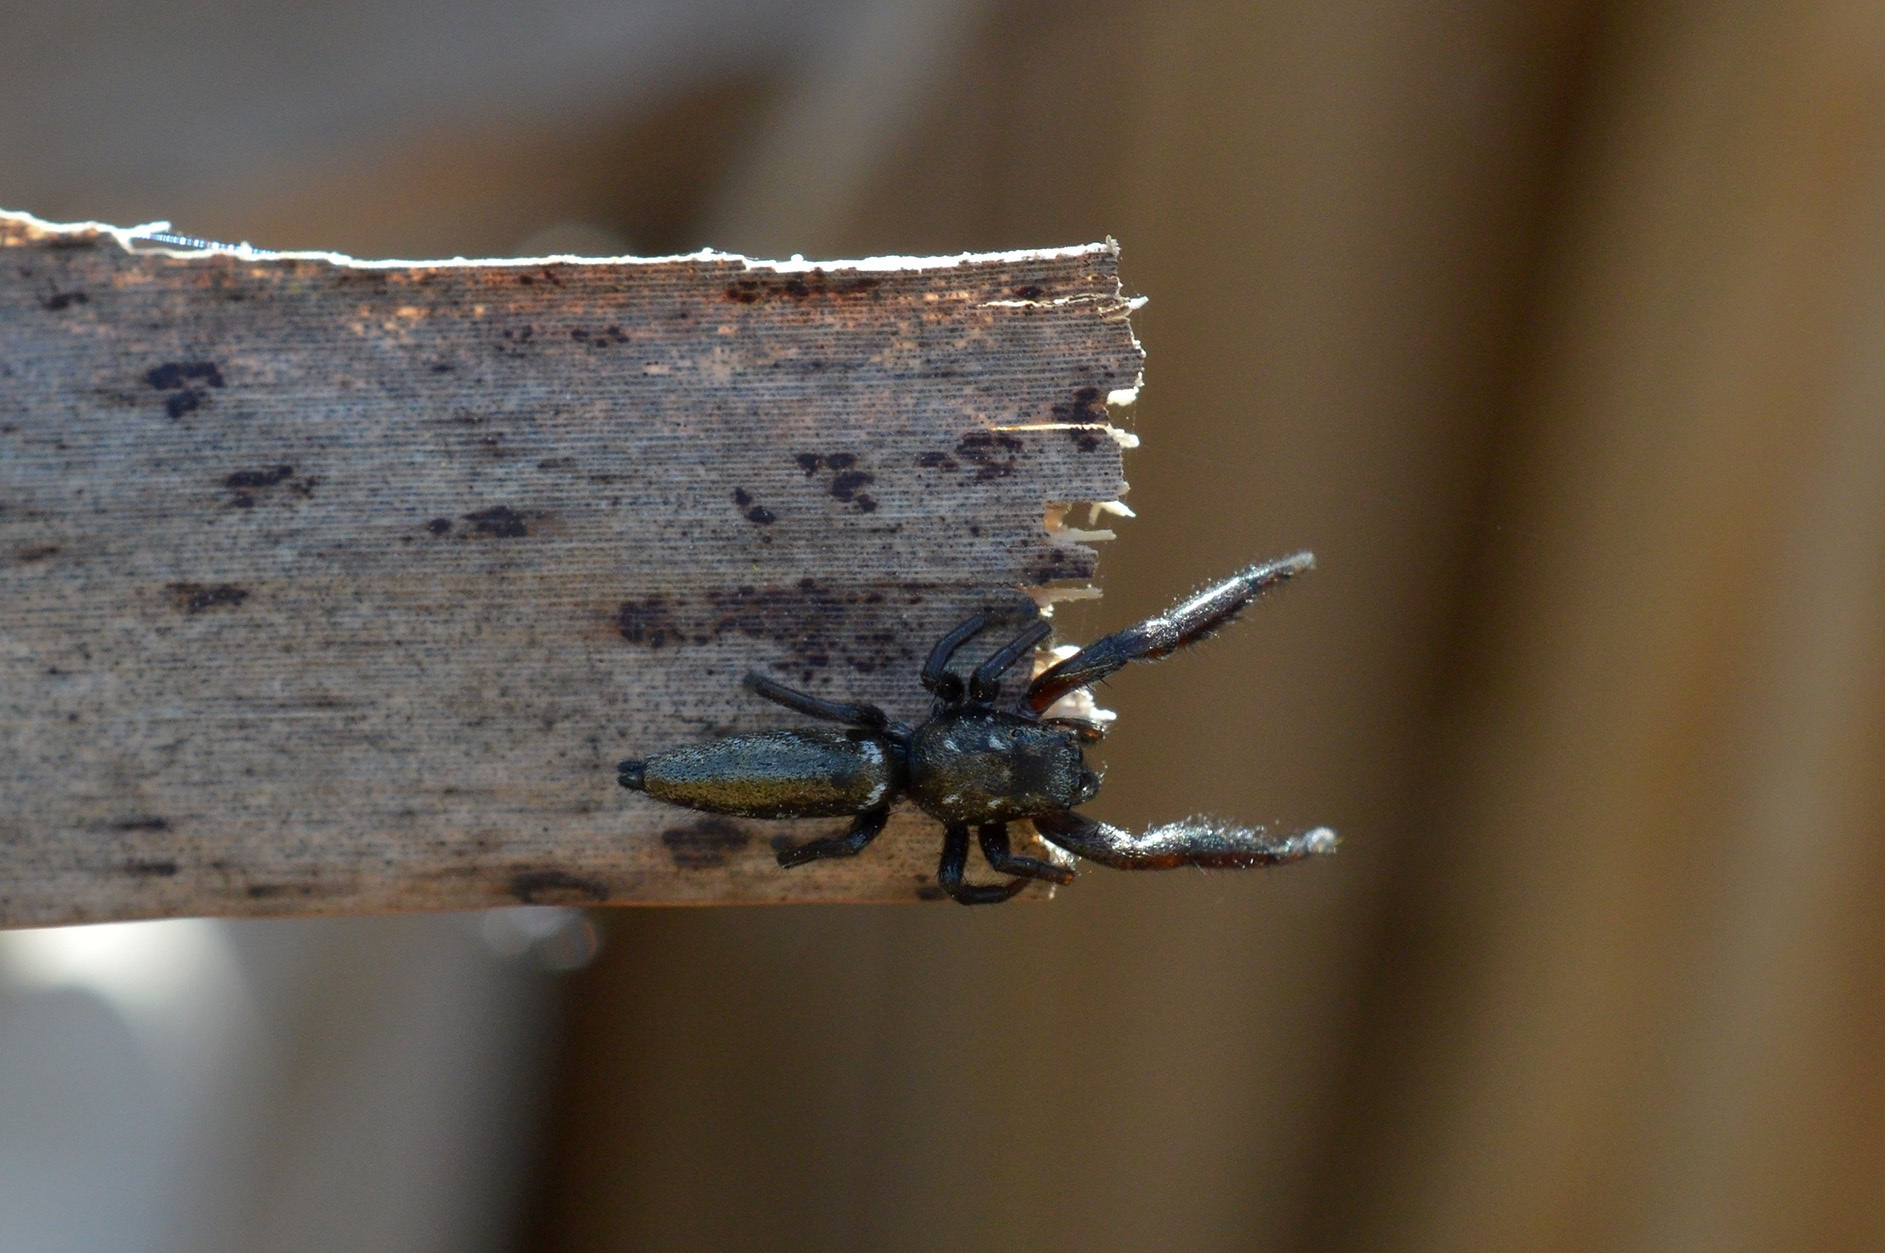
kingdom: Animalia
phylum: Arthropoda
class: Arachnida
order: Araneae
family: Salticidae
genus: Mendoza
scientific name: Mendoza canestrinii
